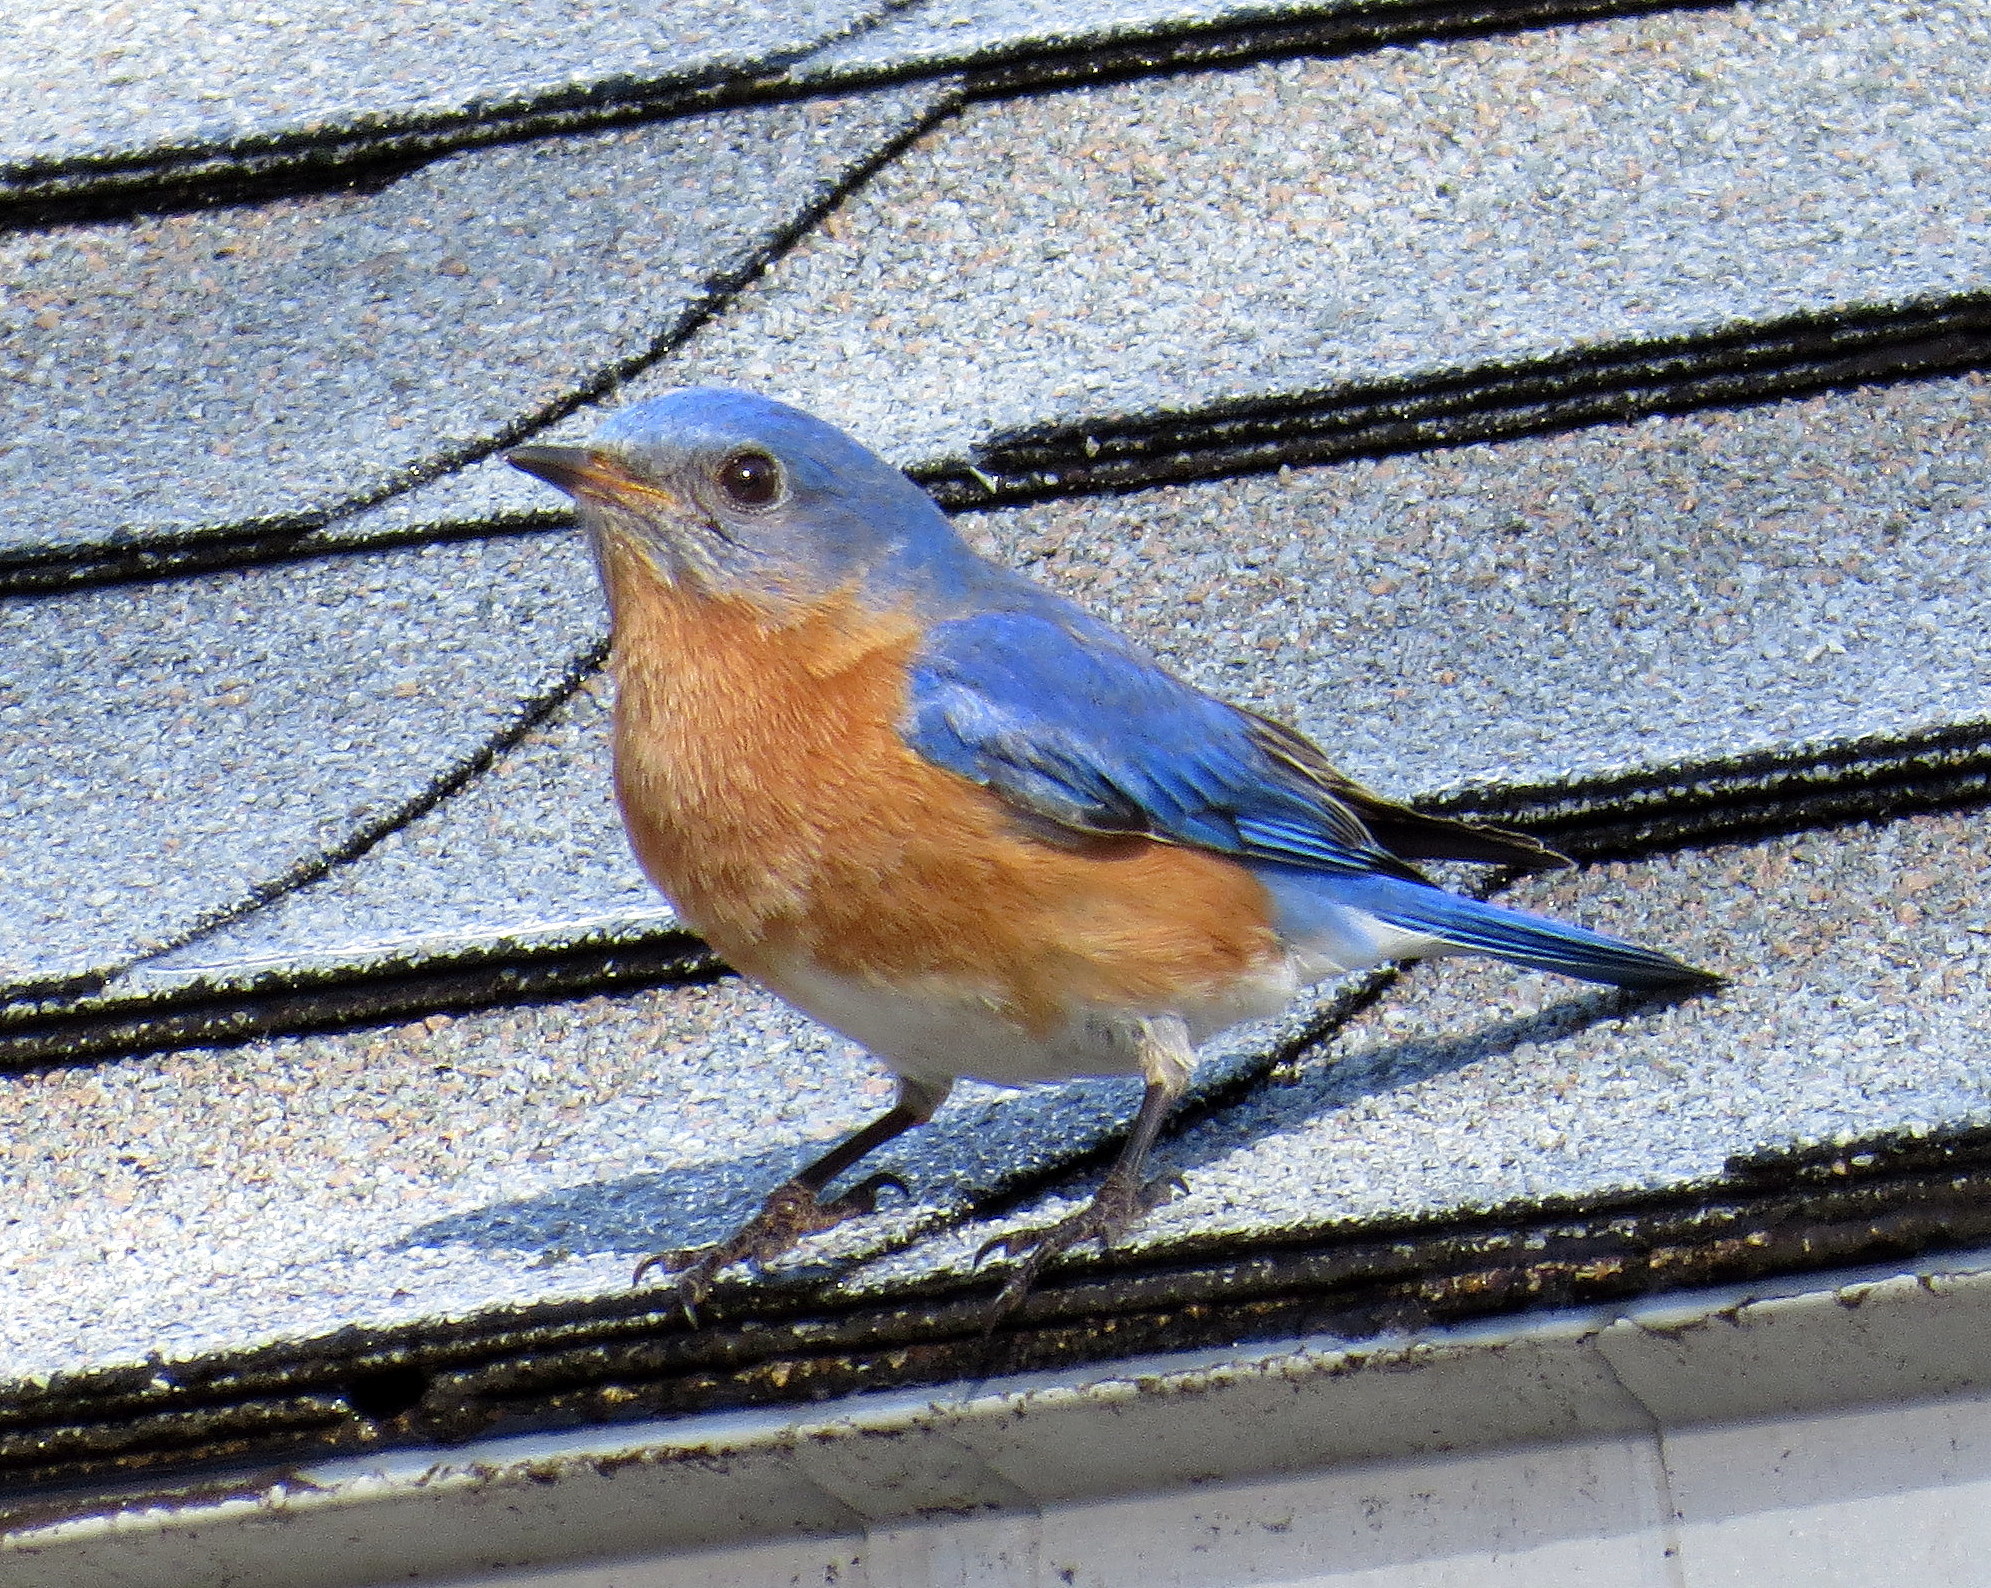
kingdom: Animalia
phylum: Chordata
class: Aves
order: Passeriformes
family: Turdidae
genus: Sialia
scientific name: Sialia sialis
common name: Eastern bluebird
